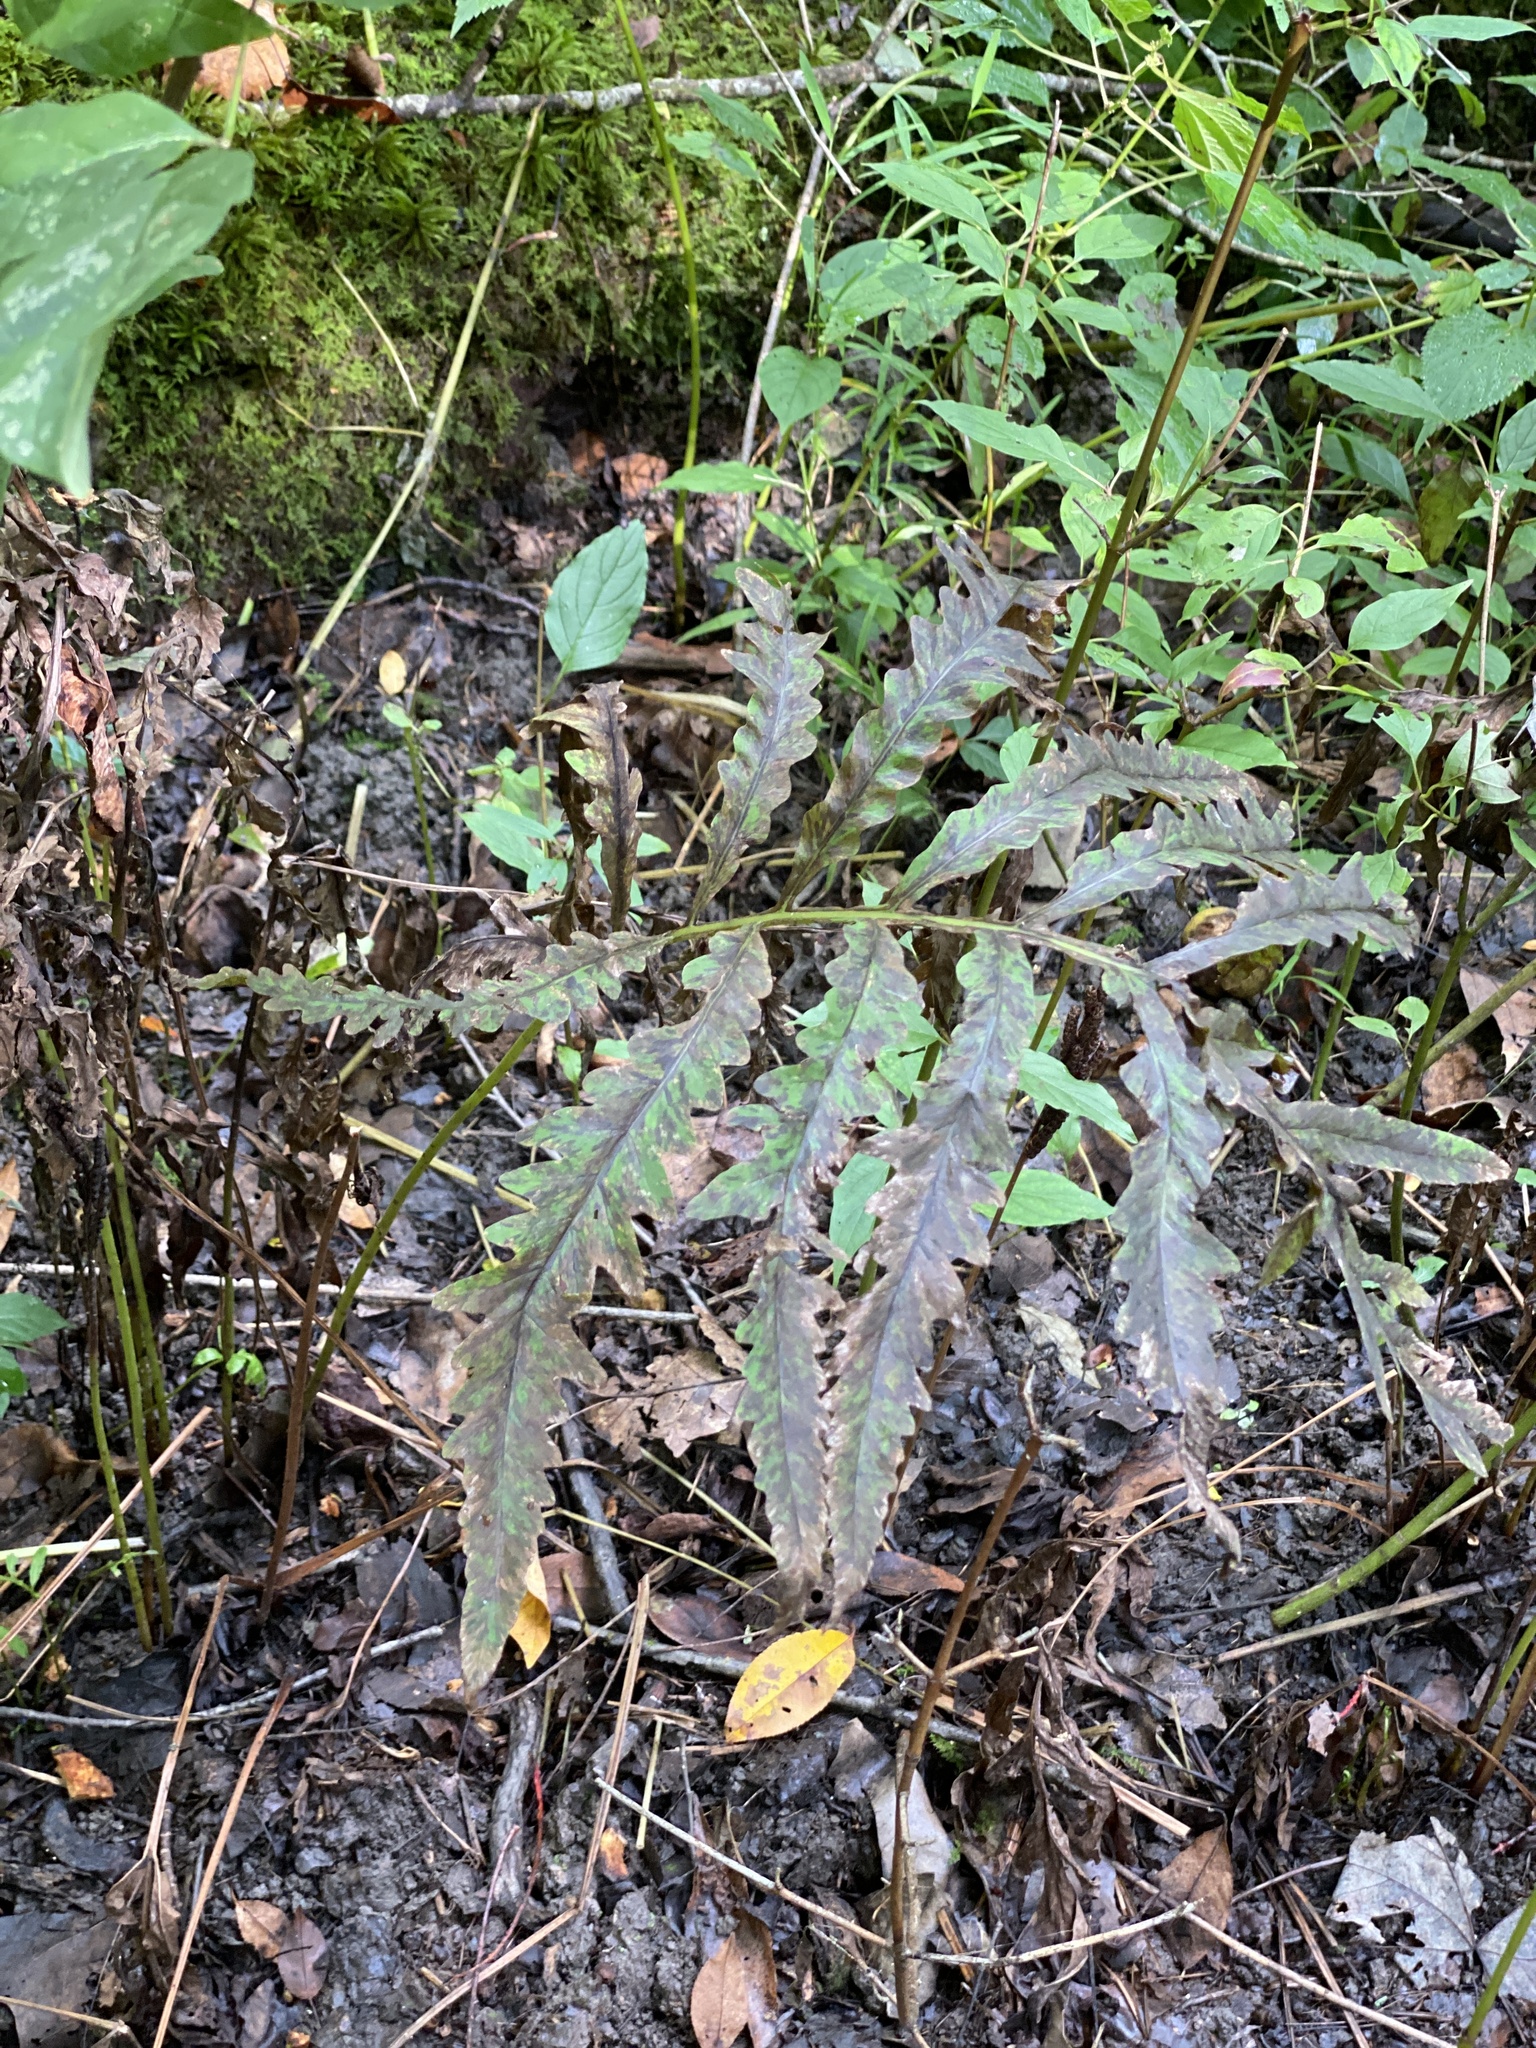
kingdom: Plantae
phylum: Tracheophyta
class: Polypodiopsida
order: Polypodiales
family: Onocleaceae
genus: Onoclea
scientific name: Onoclea sensibilis
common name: Sensitive fern
